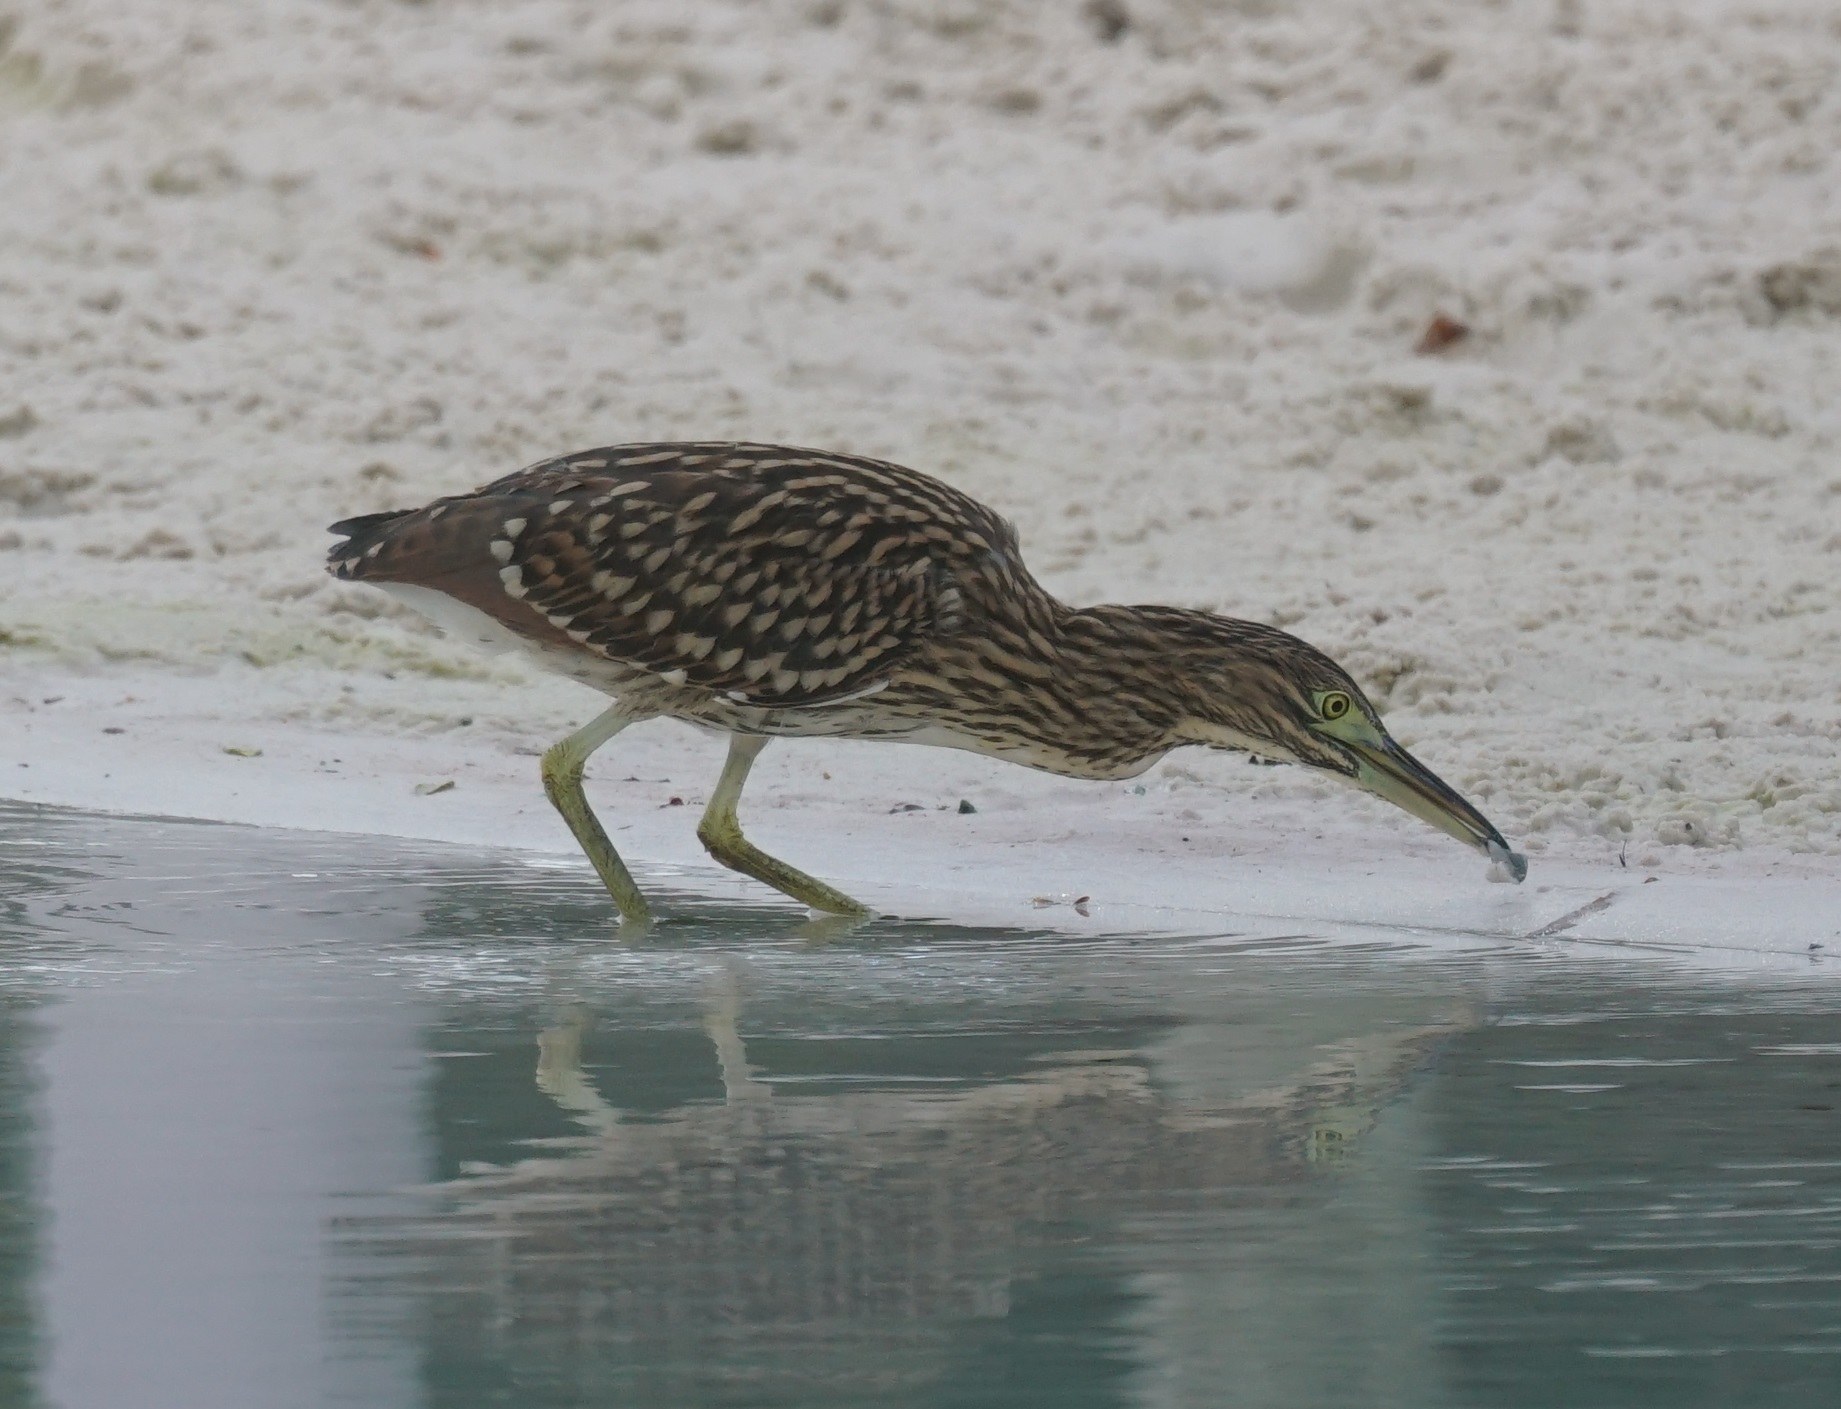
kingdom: Animalia
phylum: Chordata
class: Aves
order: Pelecaniformes
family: Ardeidae
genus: Nycticorax
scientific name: Nycticorax caledonicus
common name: Rufous night-heron
